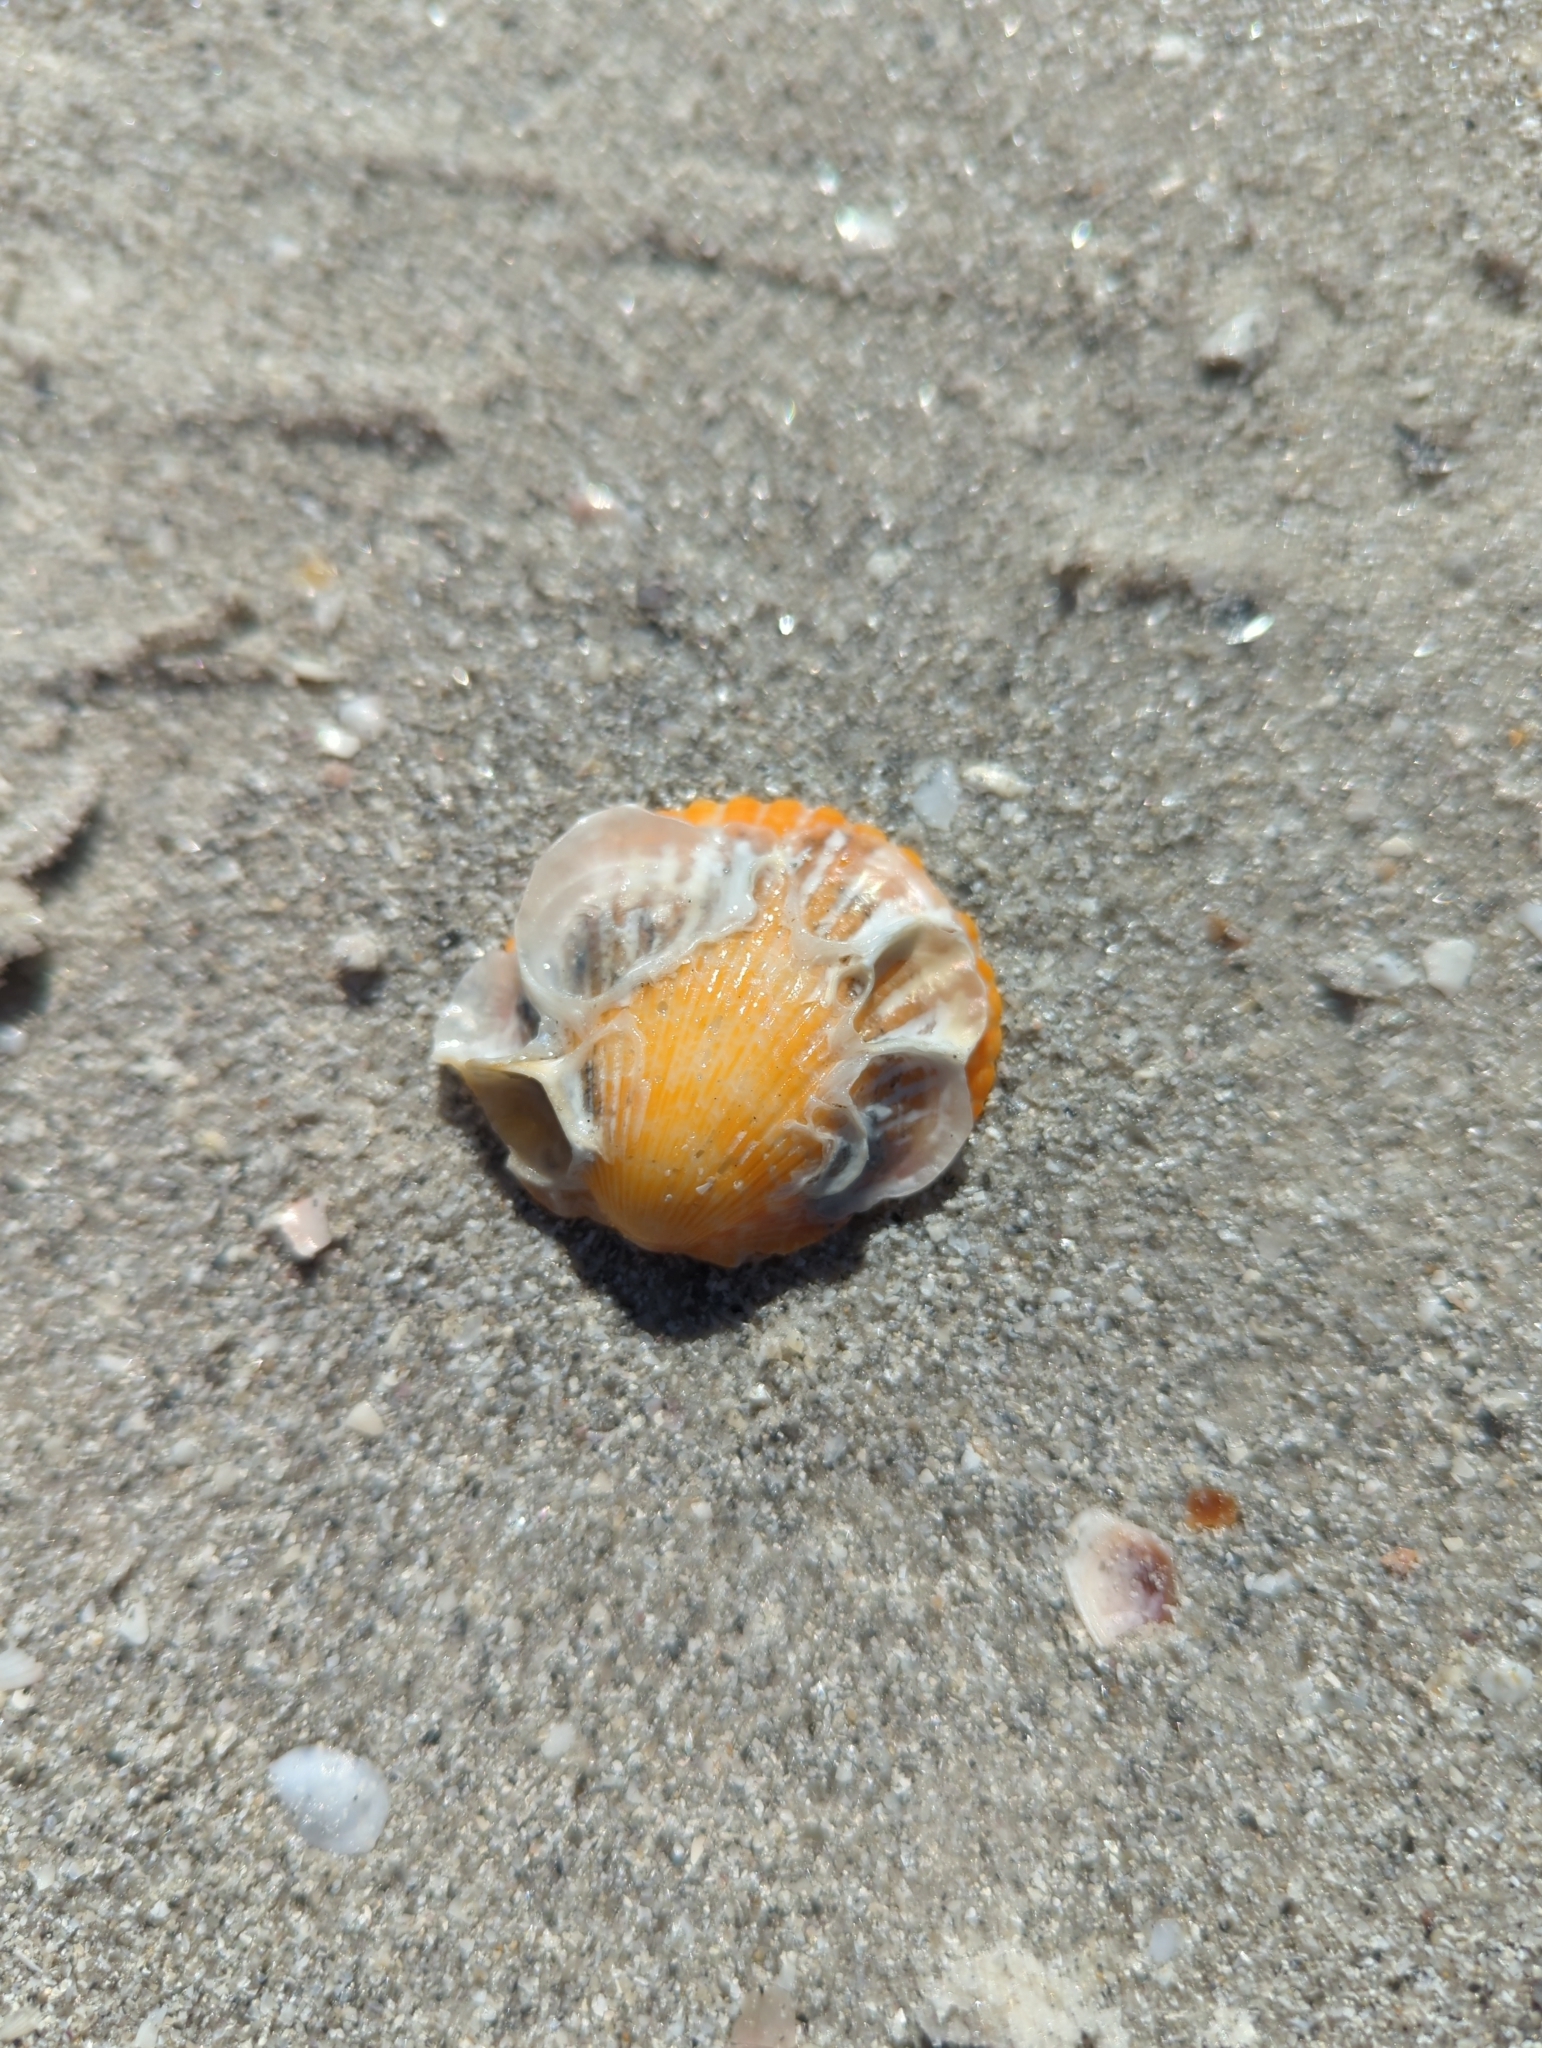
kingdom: Animalia
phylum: Mollusca
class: Bivalvia
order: Pectinida
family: Pectinidae
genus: Argopecten
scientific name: Argopecten gibbus
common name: Atlantic calico scallop
